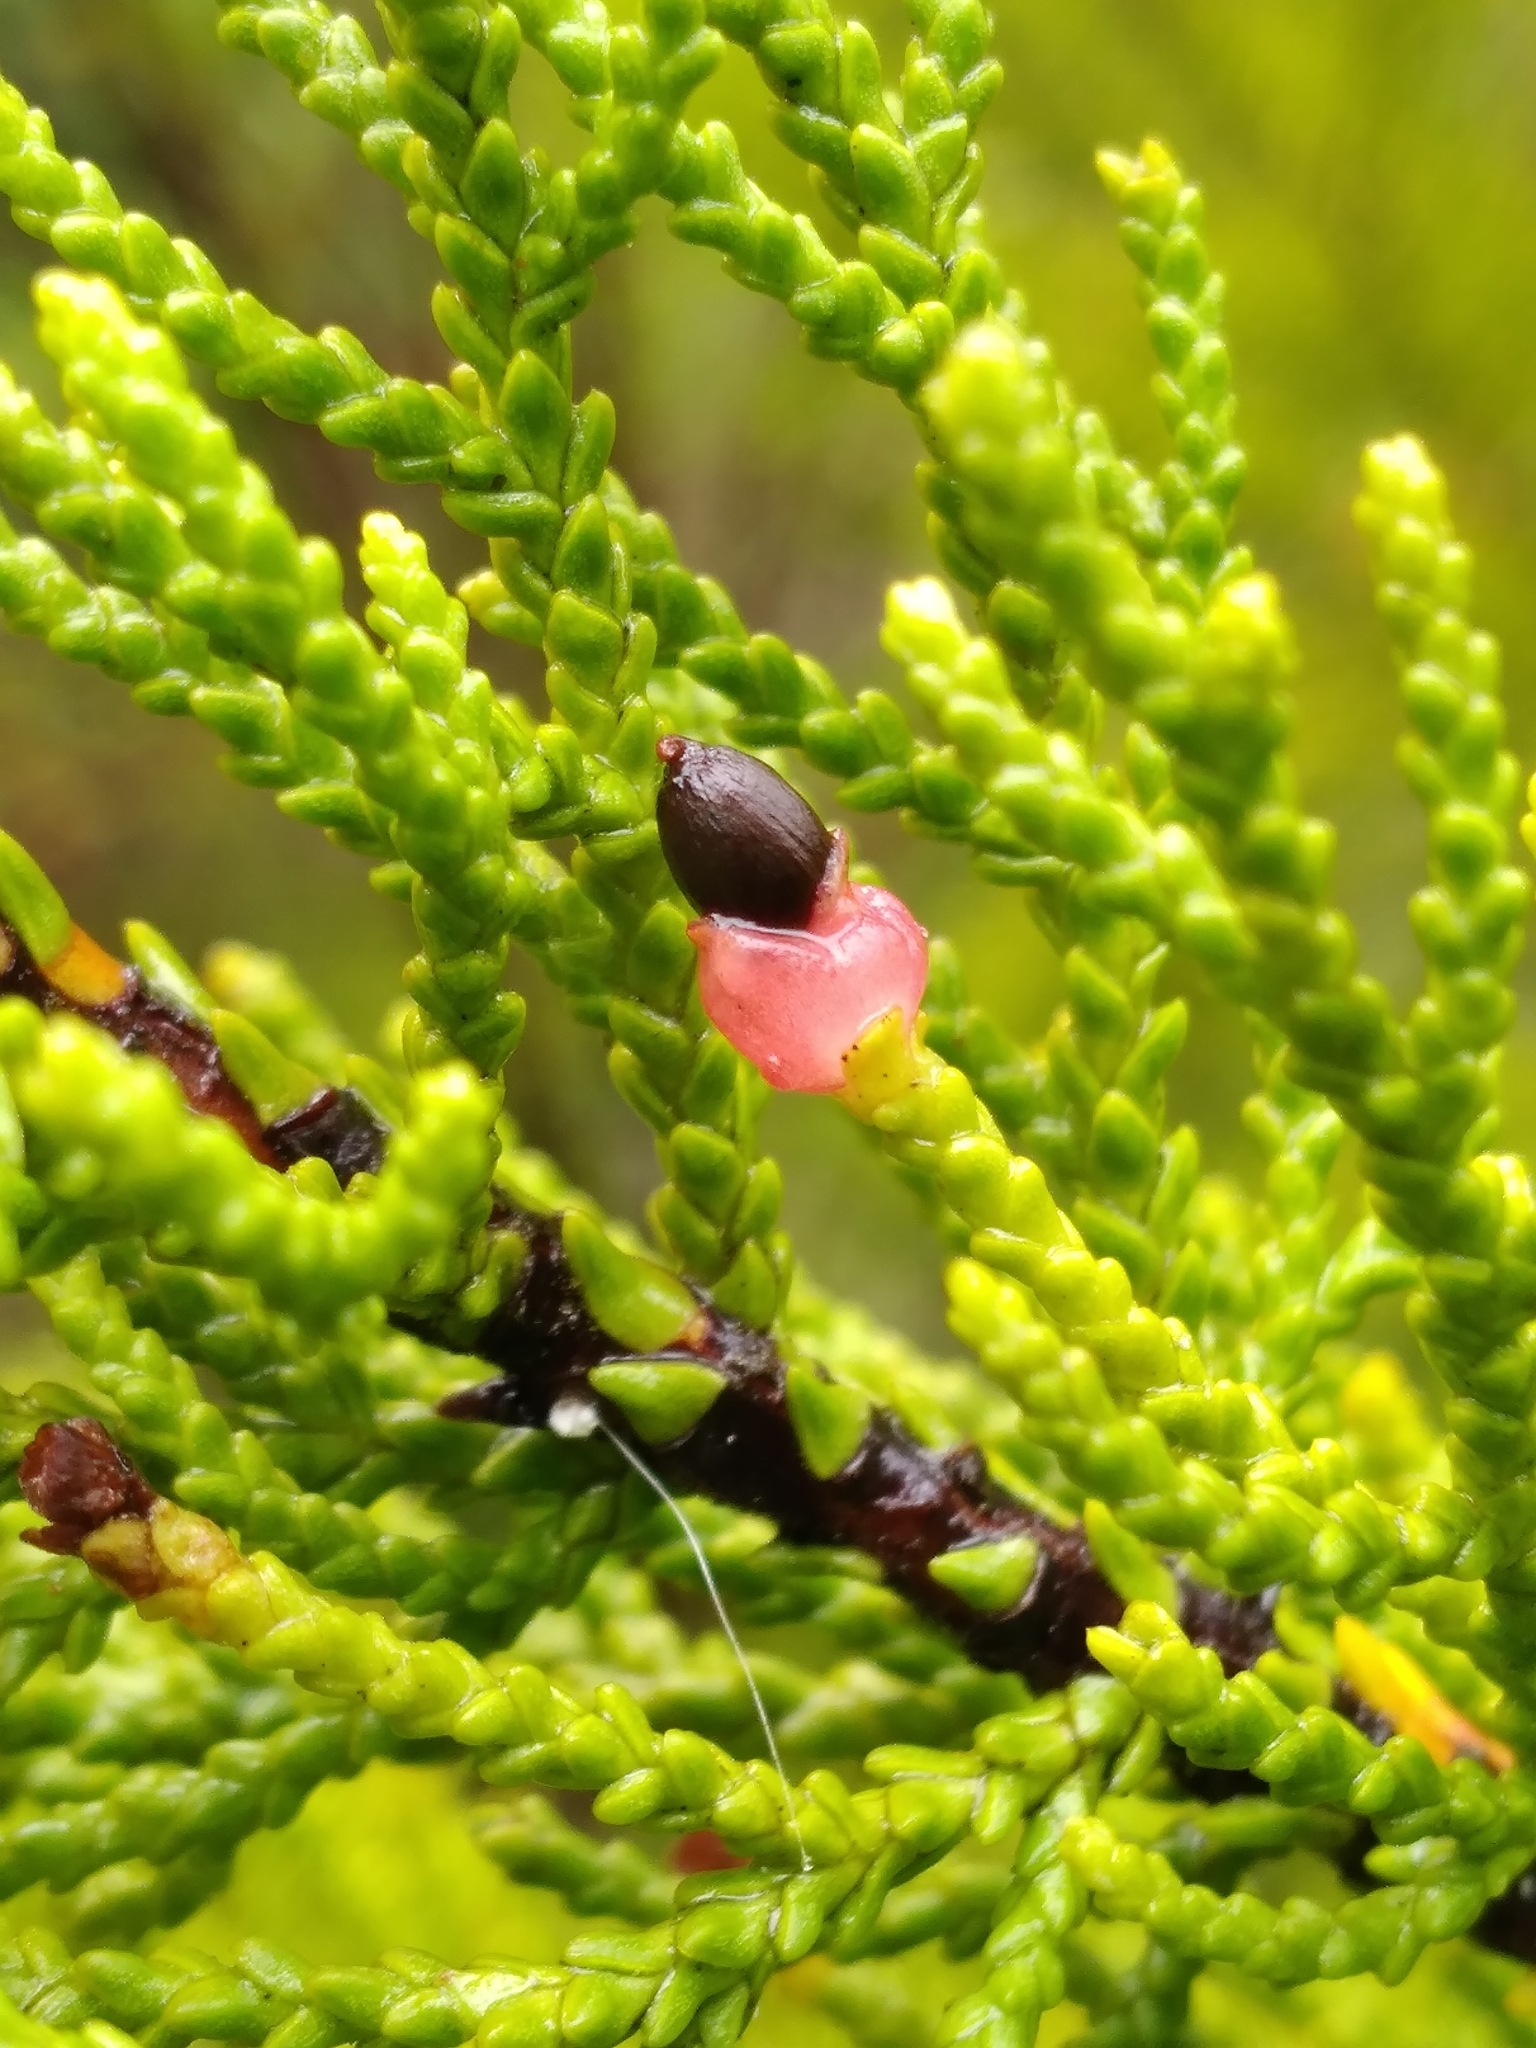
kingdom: Plantae
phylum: Tracheophyta
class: Pinopsida
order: Pinales
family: Podocarpaceae
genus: Lepidothamnus
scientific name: Lepidothamnus intermedius
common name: Yellow silver pine
